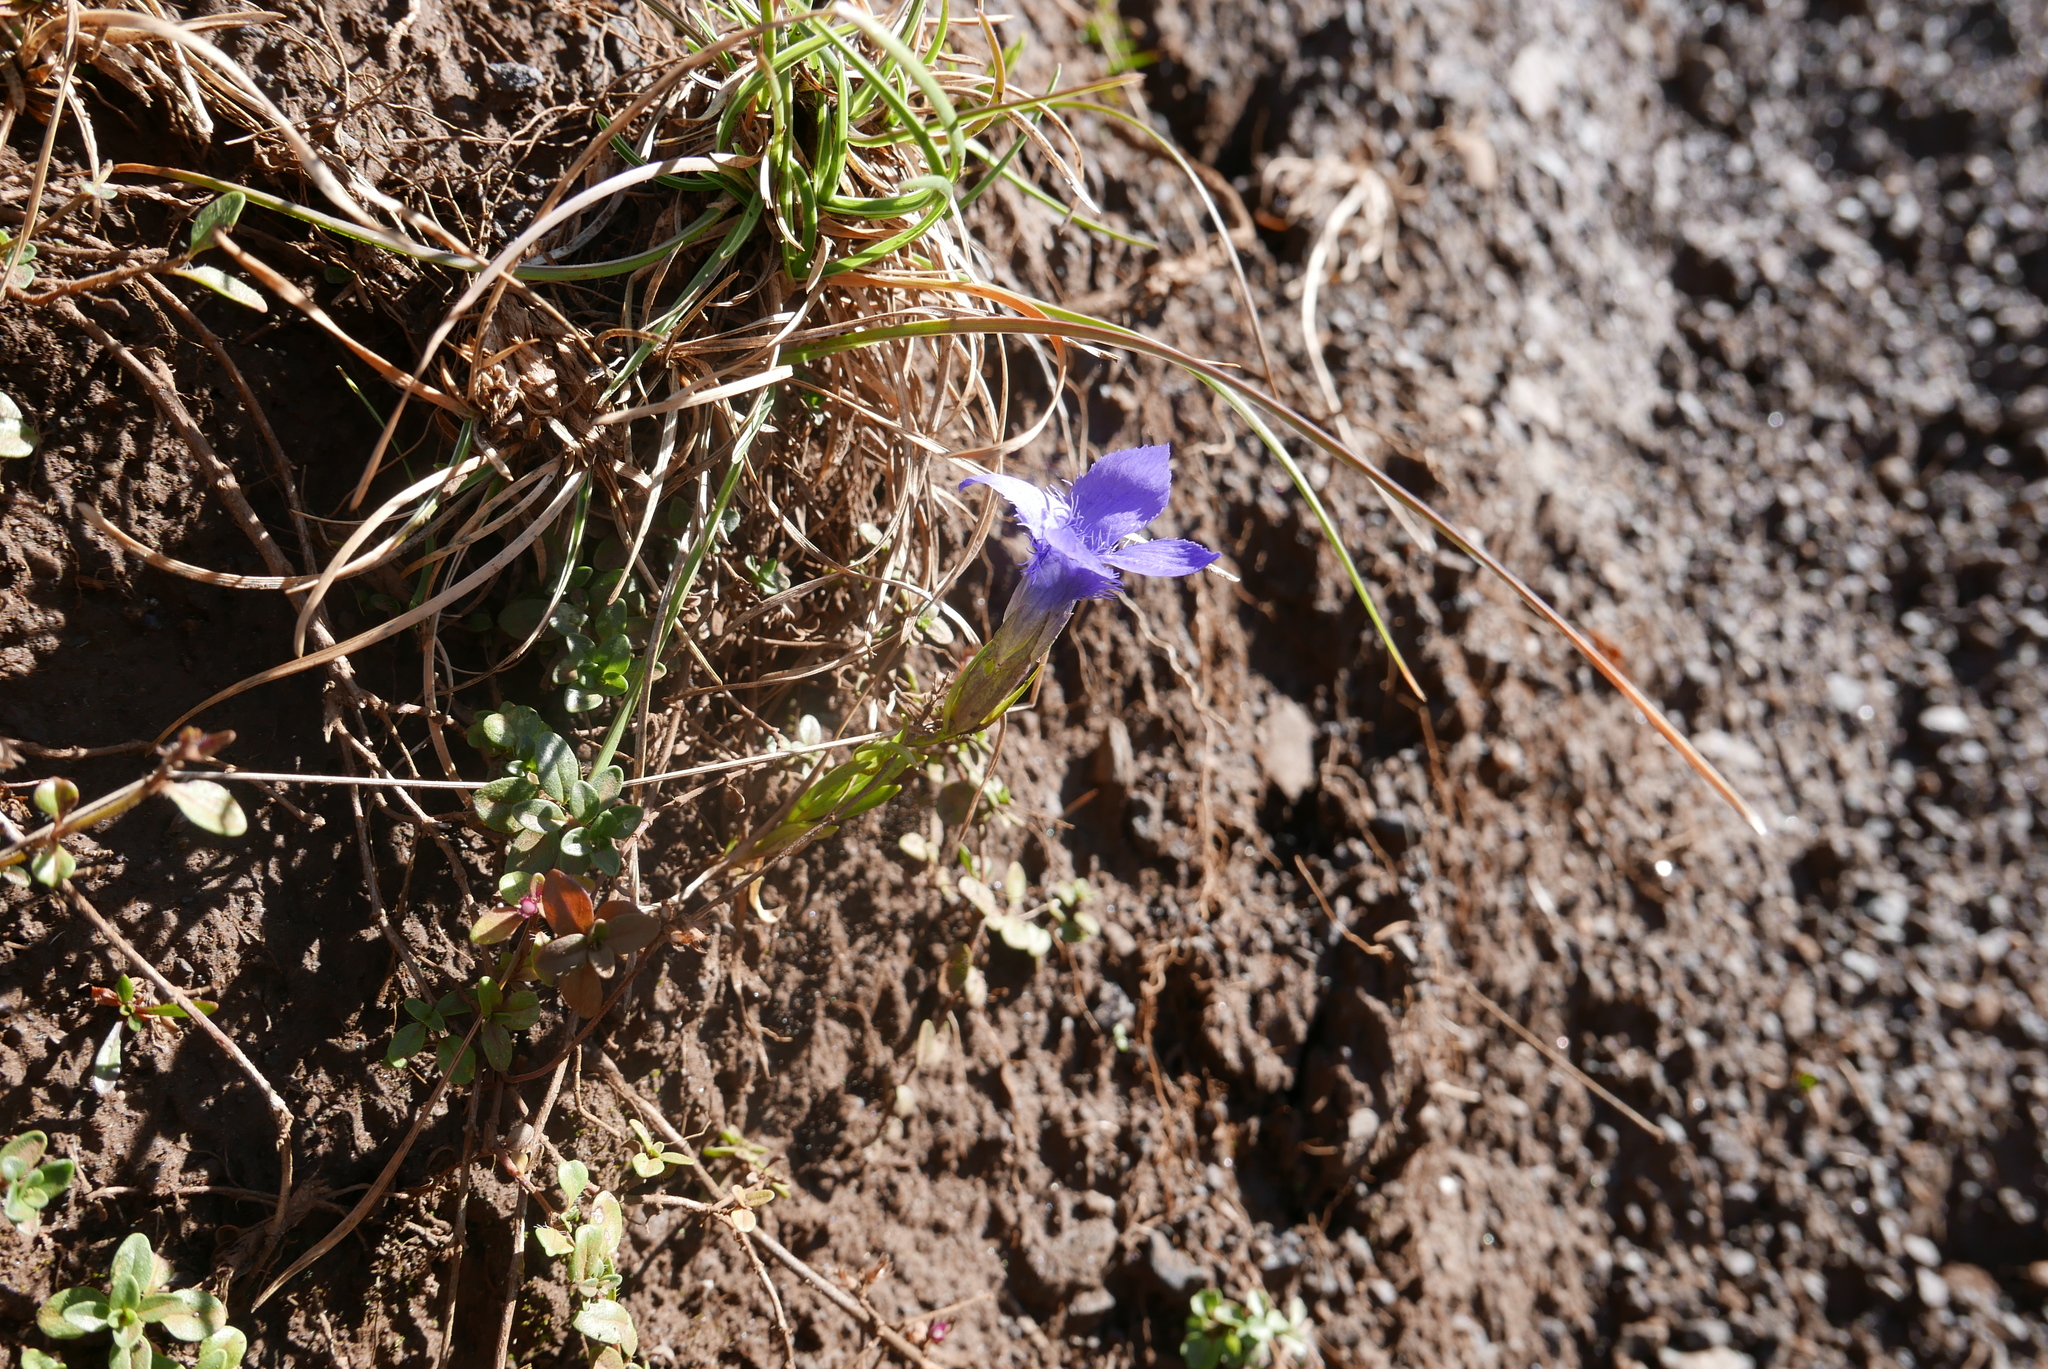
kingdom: Plantae
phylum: Tracheophyta
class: Magnoliopsida
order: Gentianales
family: Gentianaceae
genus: Gentianopsis
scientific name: Gentianopsis ciliata
